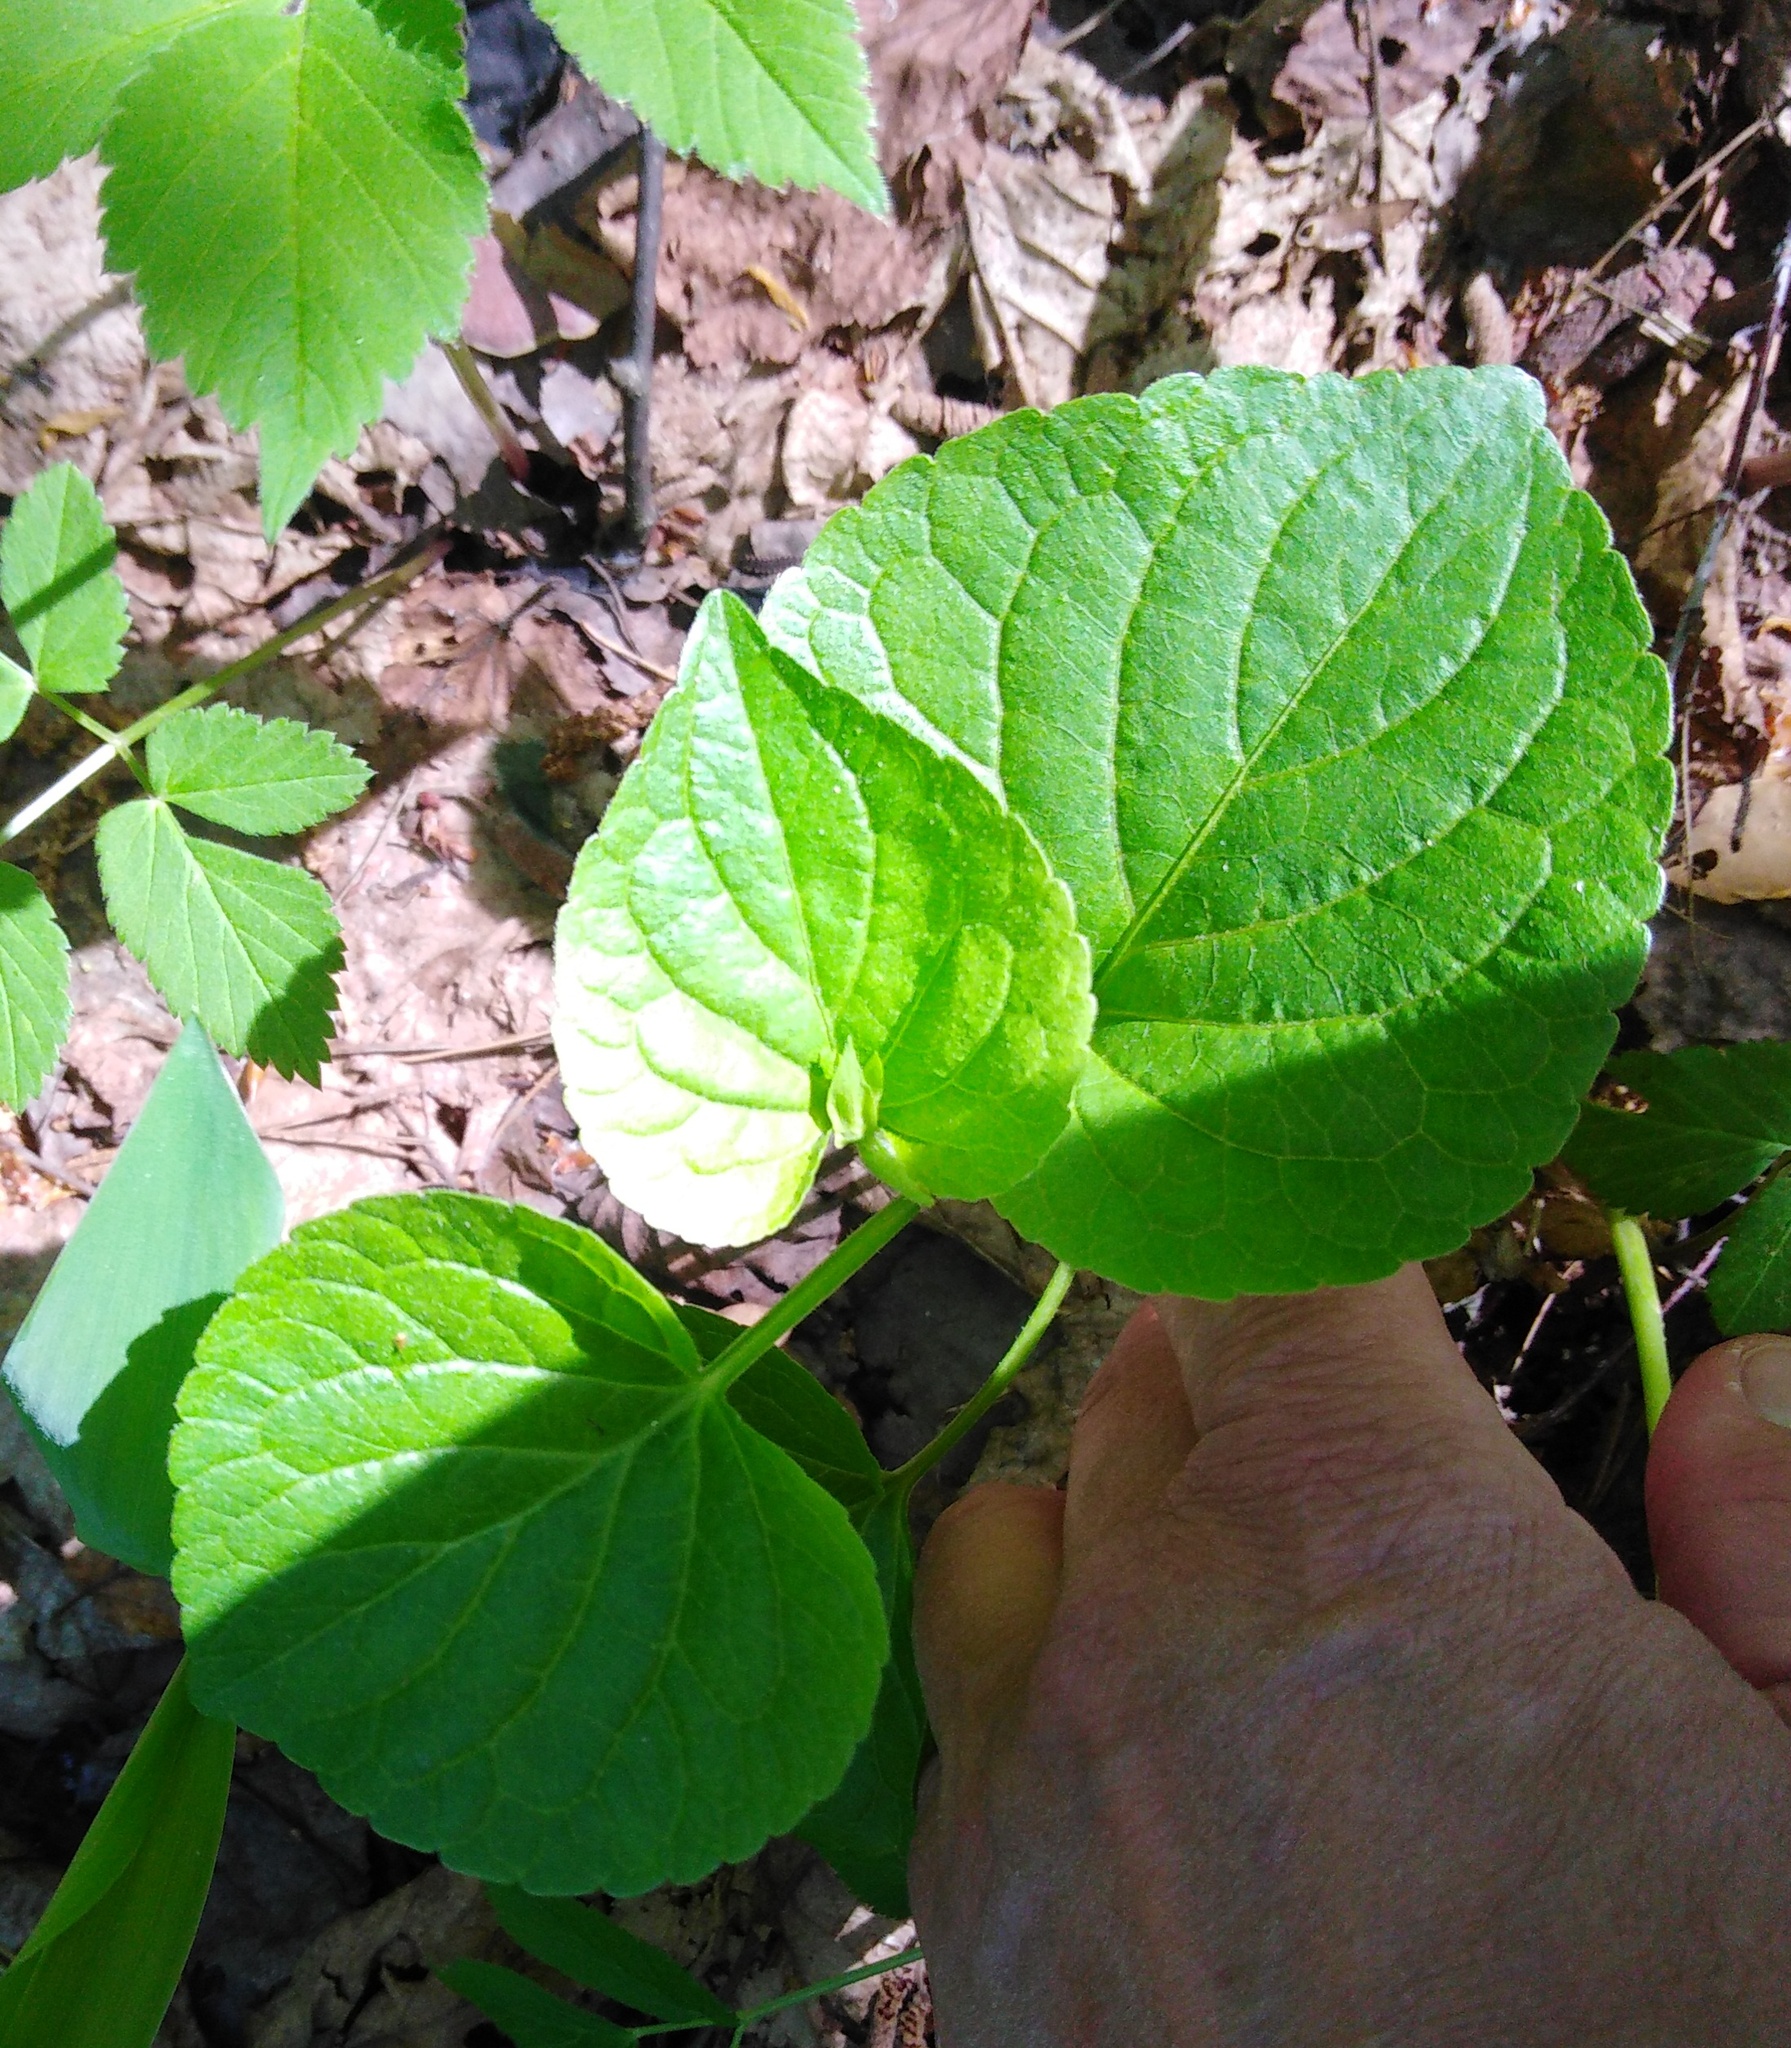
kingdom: Plantae
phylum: Tracheophyta
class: Magnoliopsida
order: Malpighiales
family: Violaceae
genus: Viola
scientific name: Viola mirabilis
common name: Wonder violet
